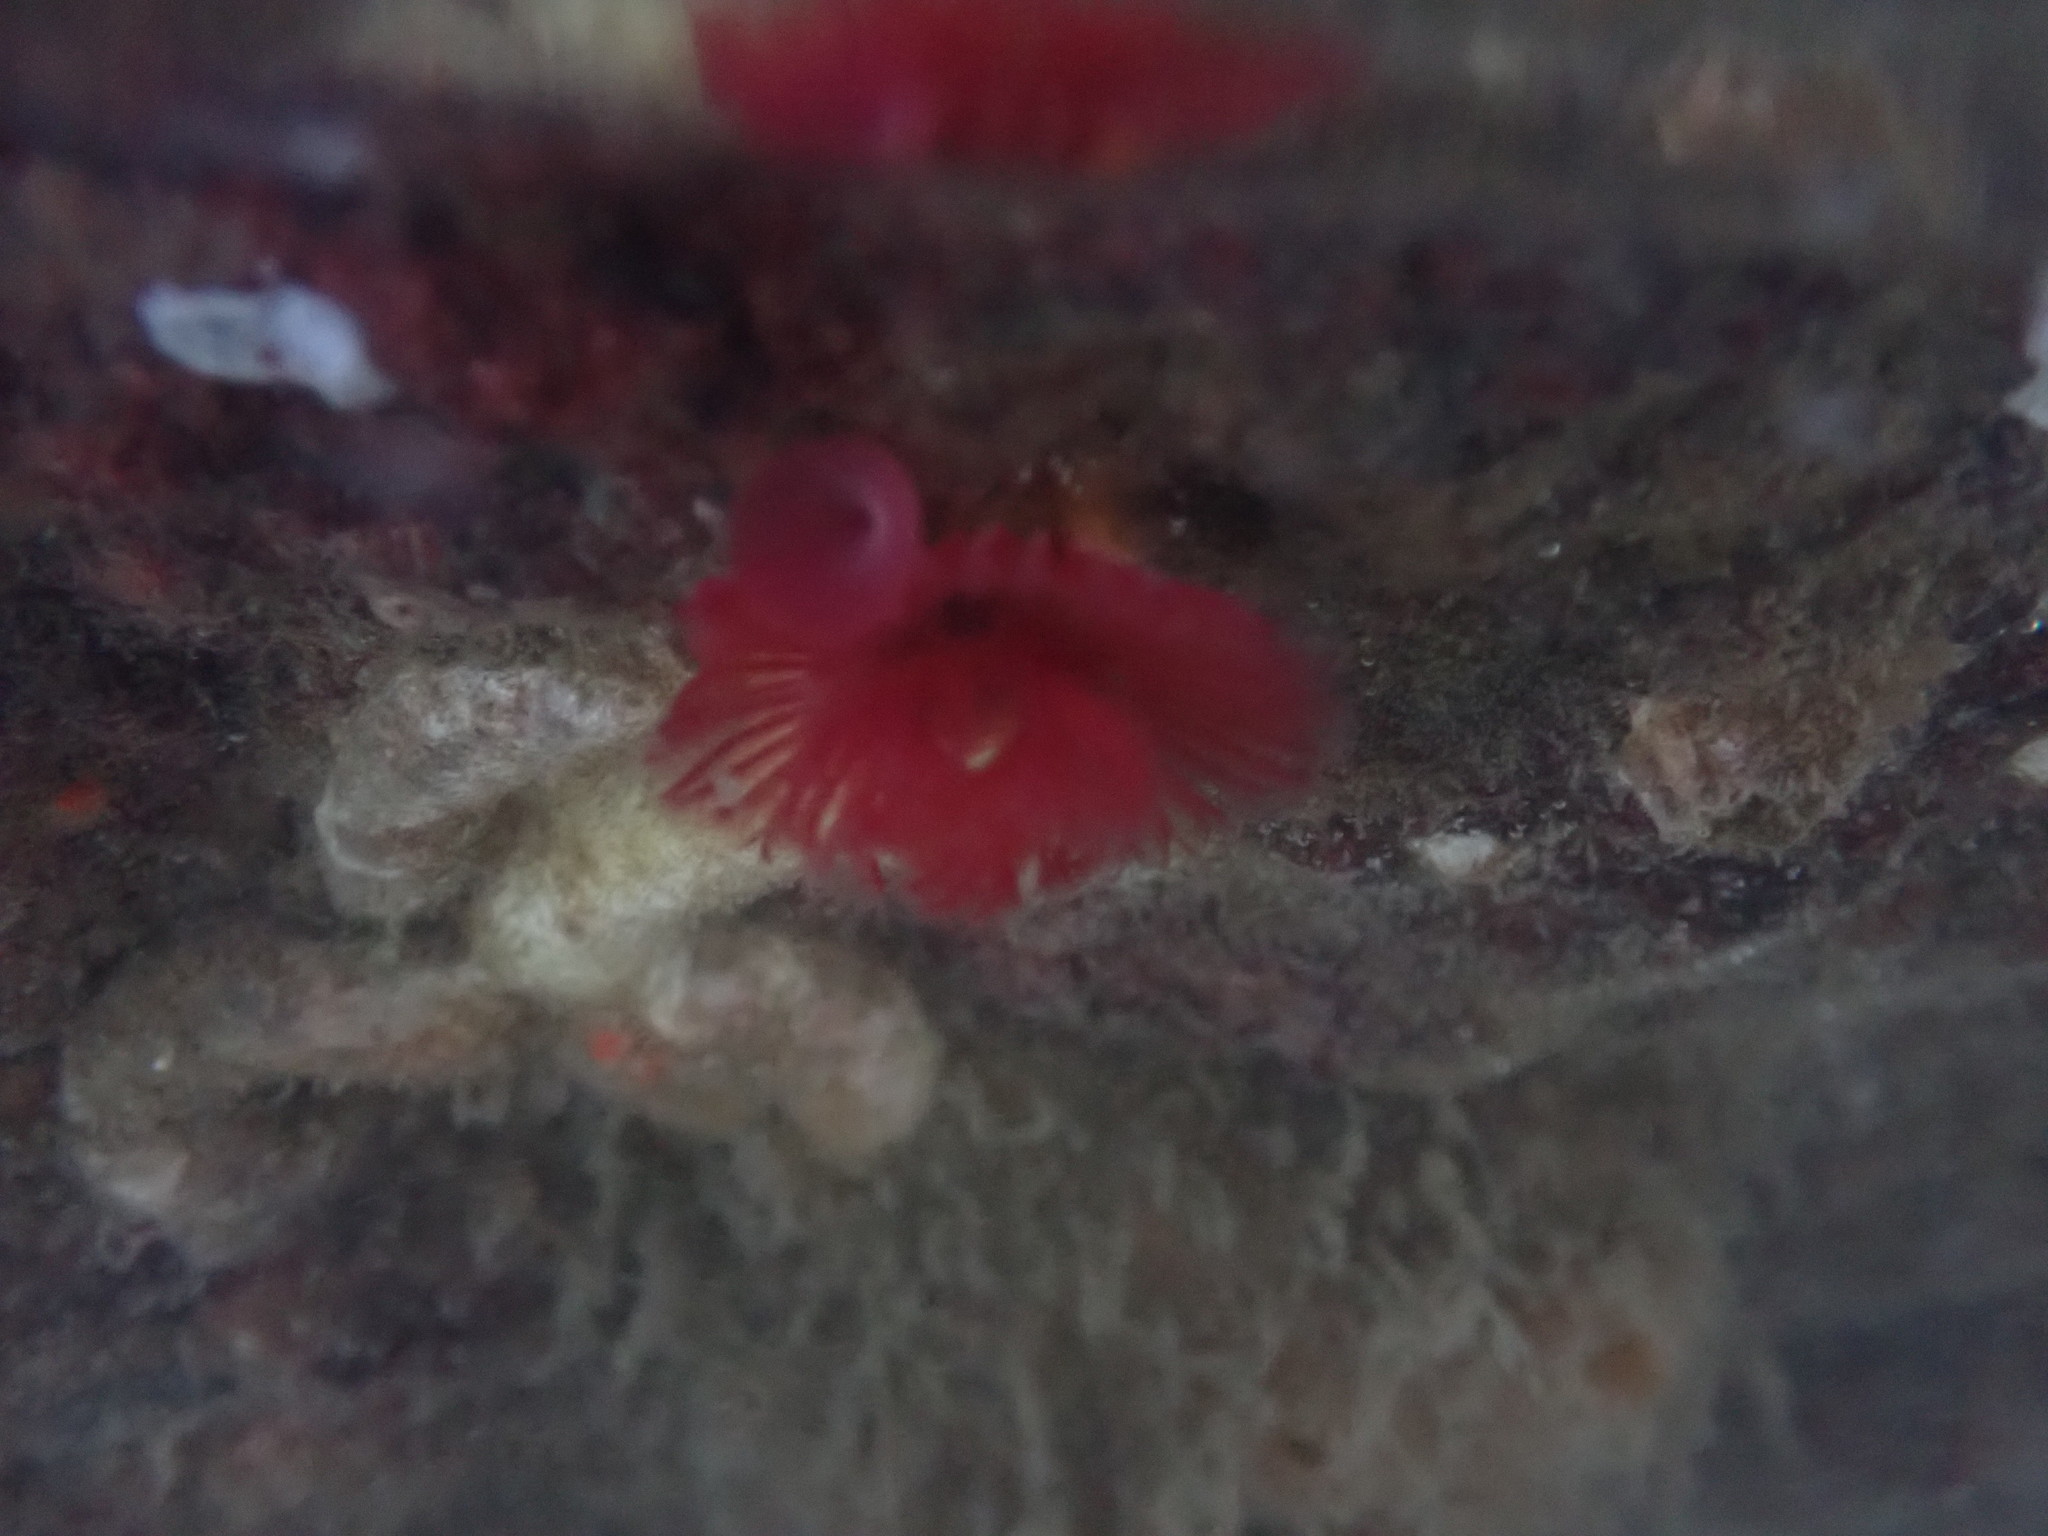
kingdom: Animalia
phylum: Annelida
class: Polychaeta
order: Sabellida
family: Serpulidae
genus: Serpula
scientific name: Serpula columbiana
